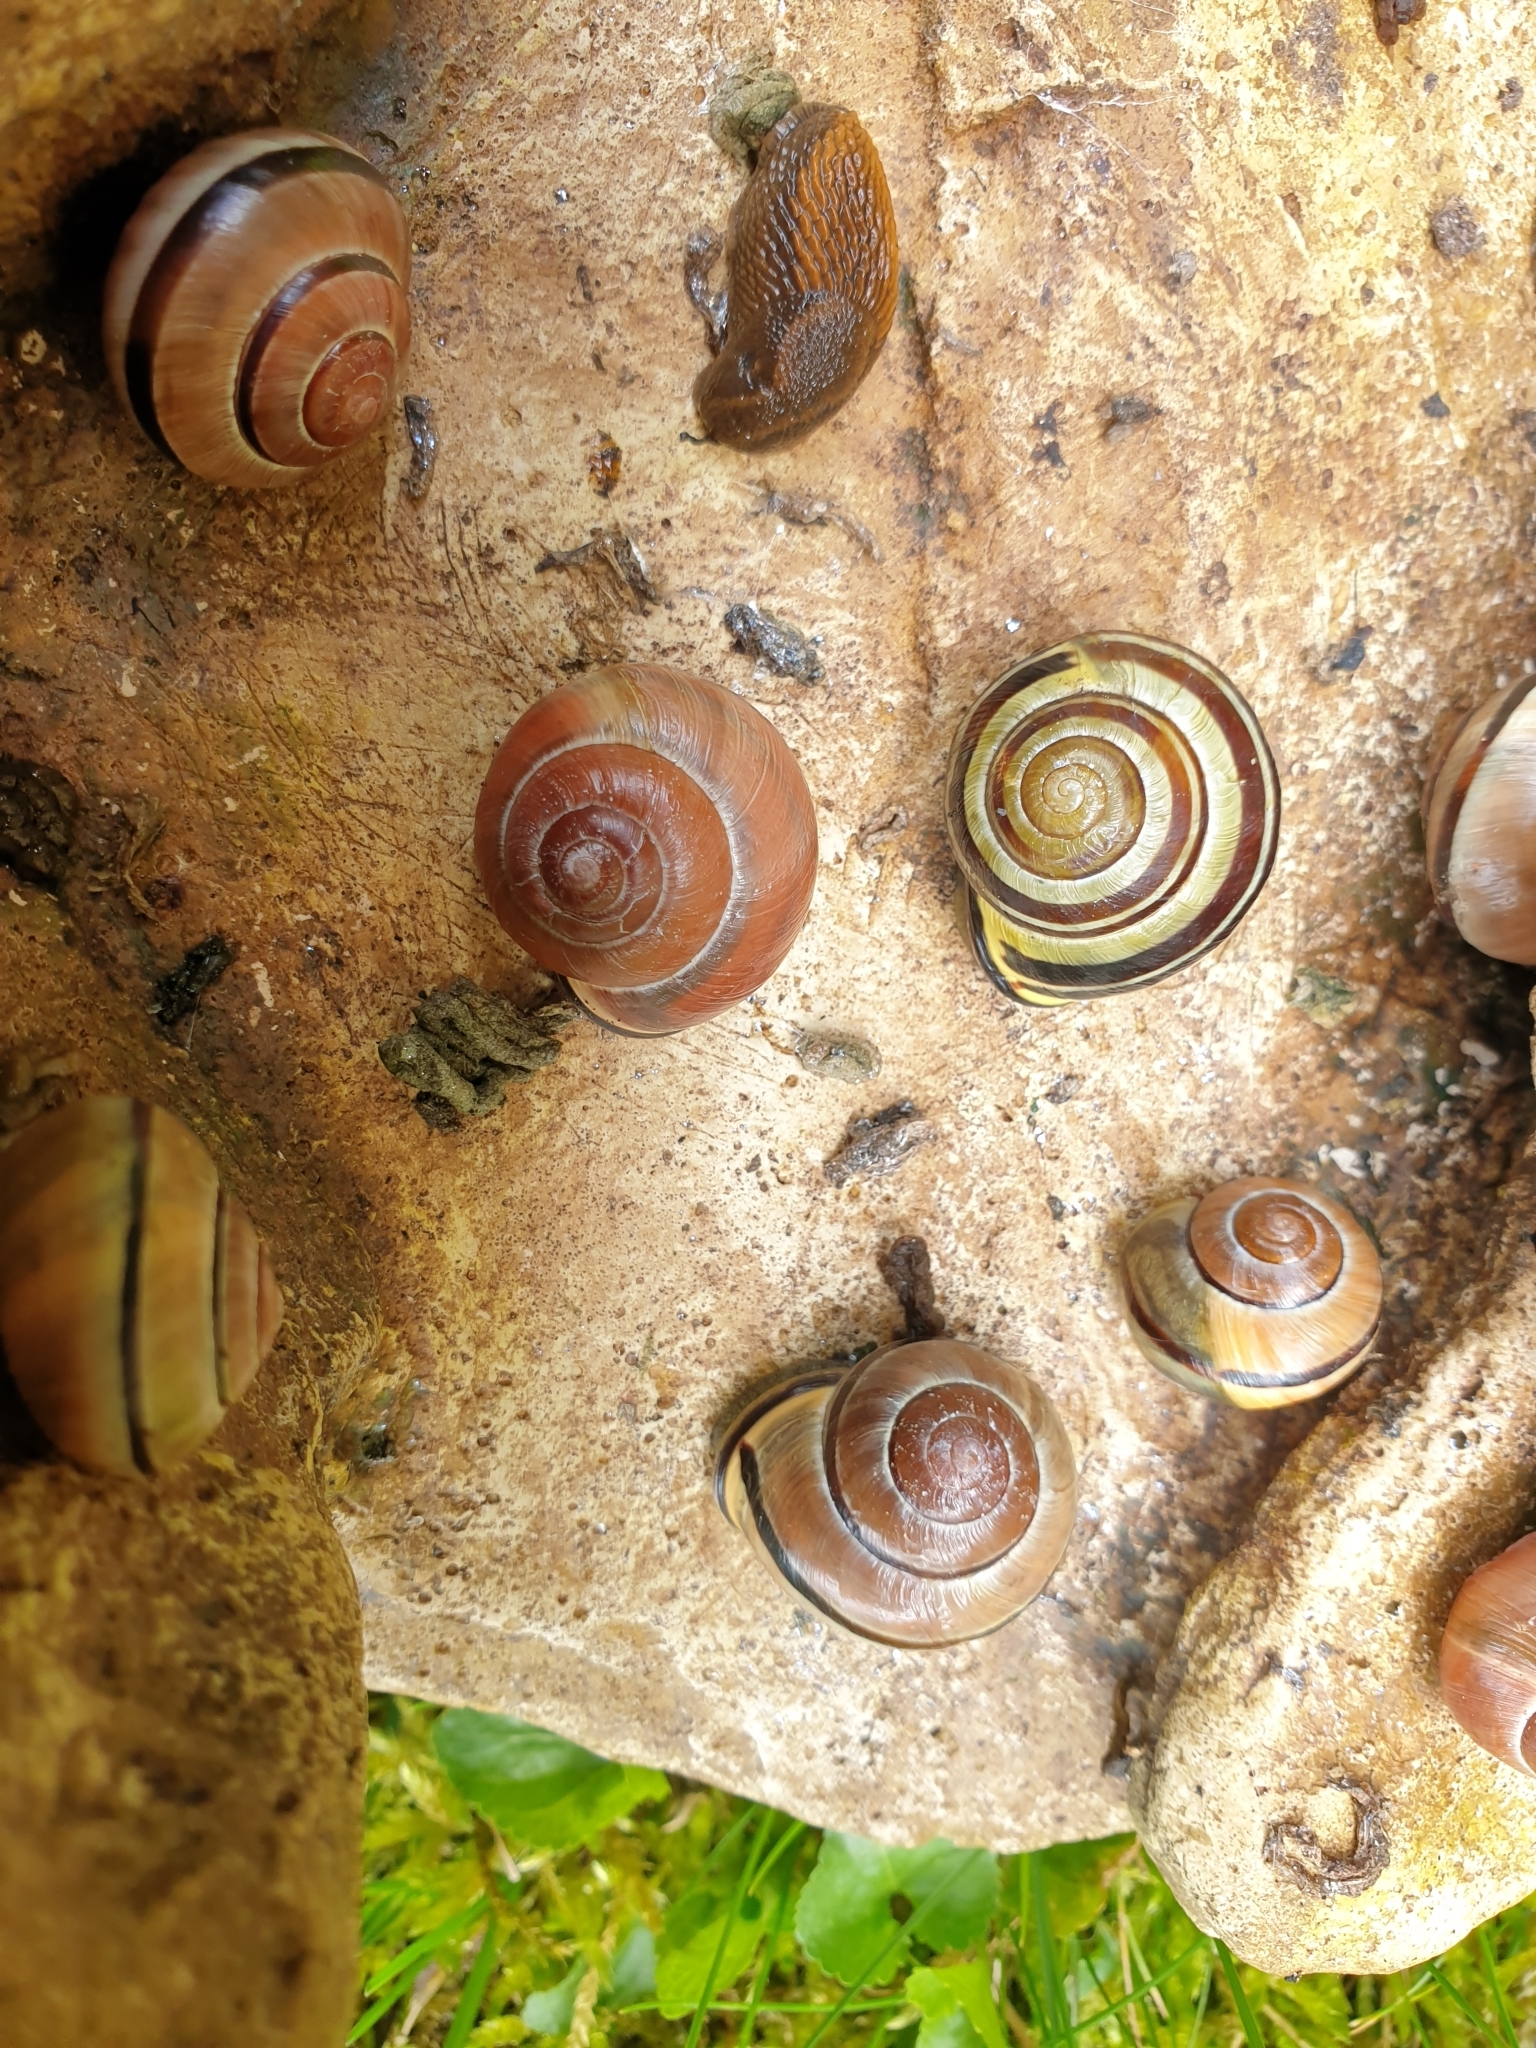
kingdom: Animalia
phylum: Mollusca
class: Gastropoda
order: Stylommatophora
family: Helicidae
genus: Cepaea
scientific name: Cepaea nemoralis
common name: Grovesnail
